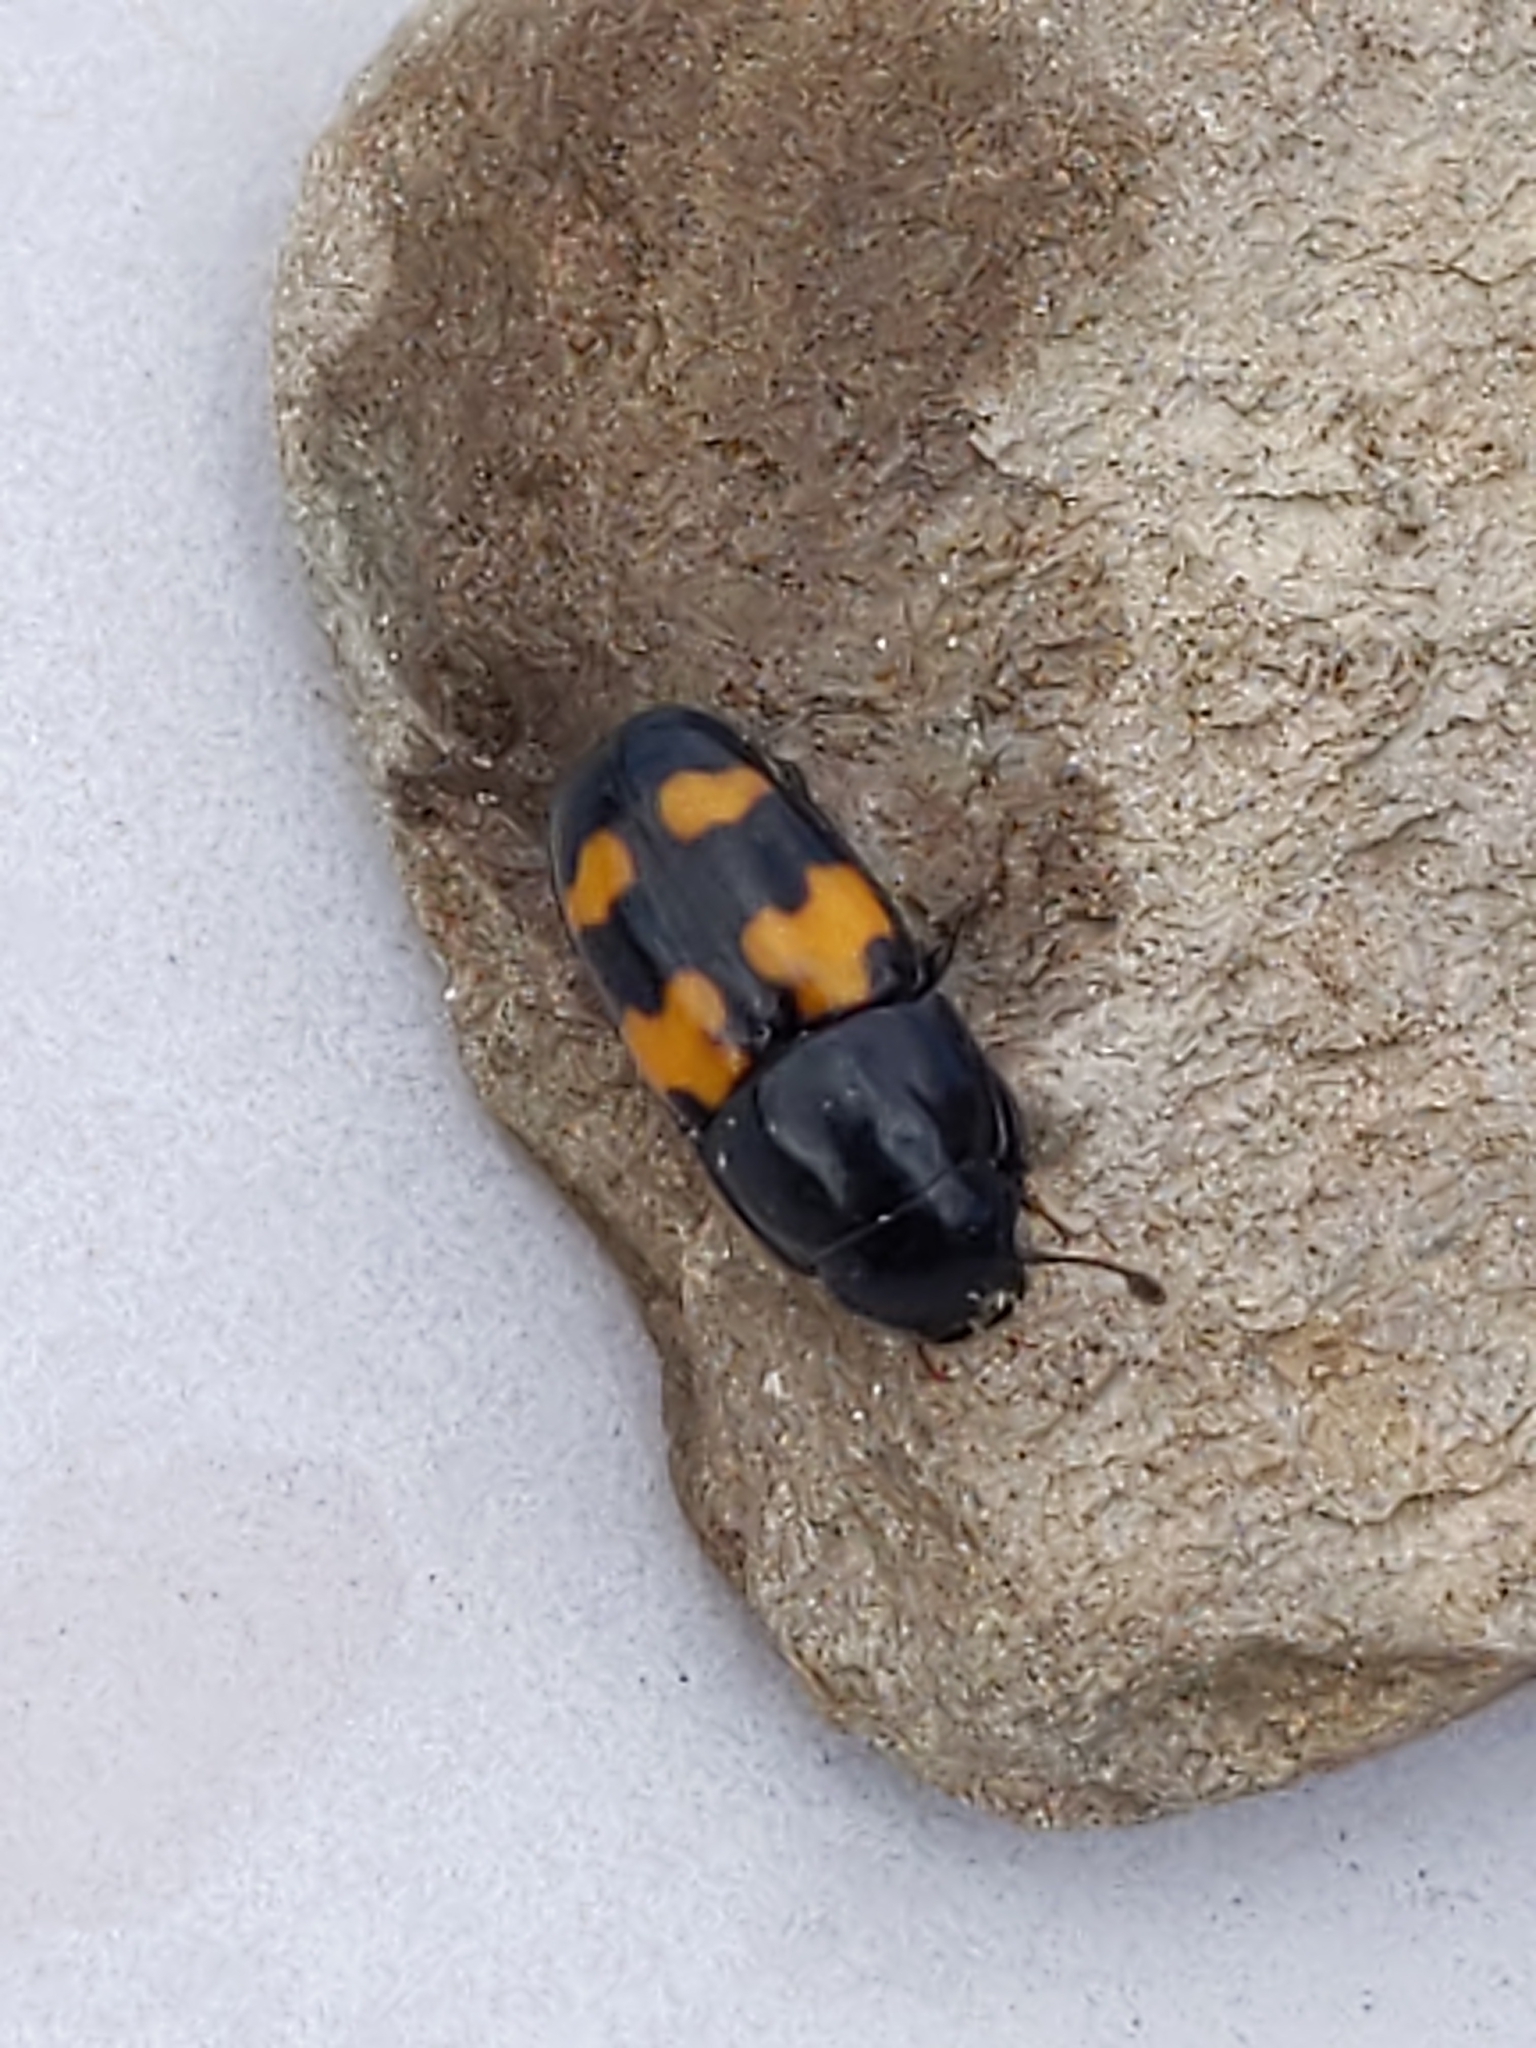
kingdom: Animalia
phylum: Arthropoda
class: Insecta
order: Coleoptera
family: Nitidulidae
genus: Glischrochilus
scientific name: Glischrochilus fasciatus
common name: Picnic beetle
